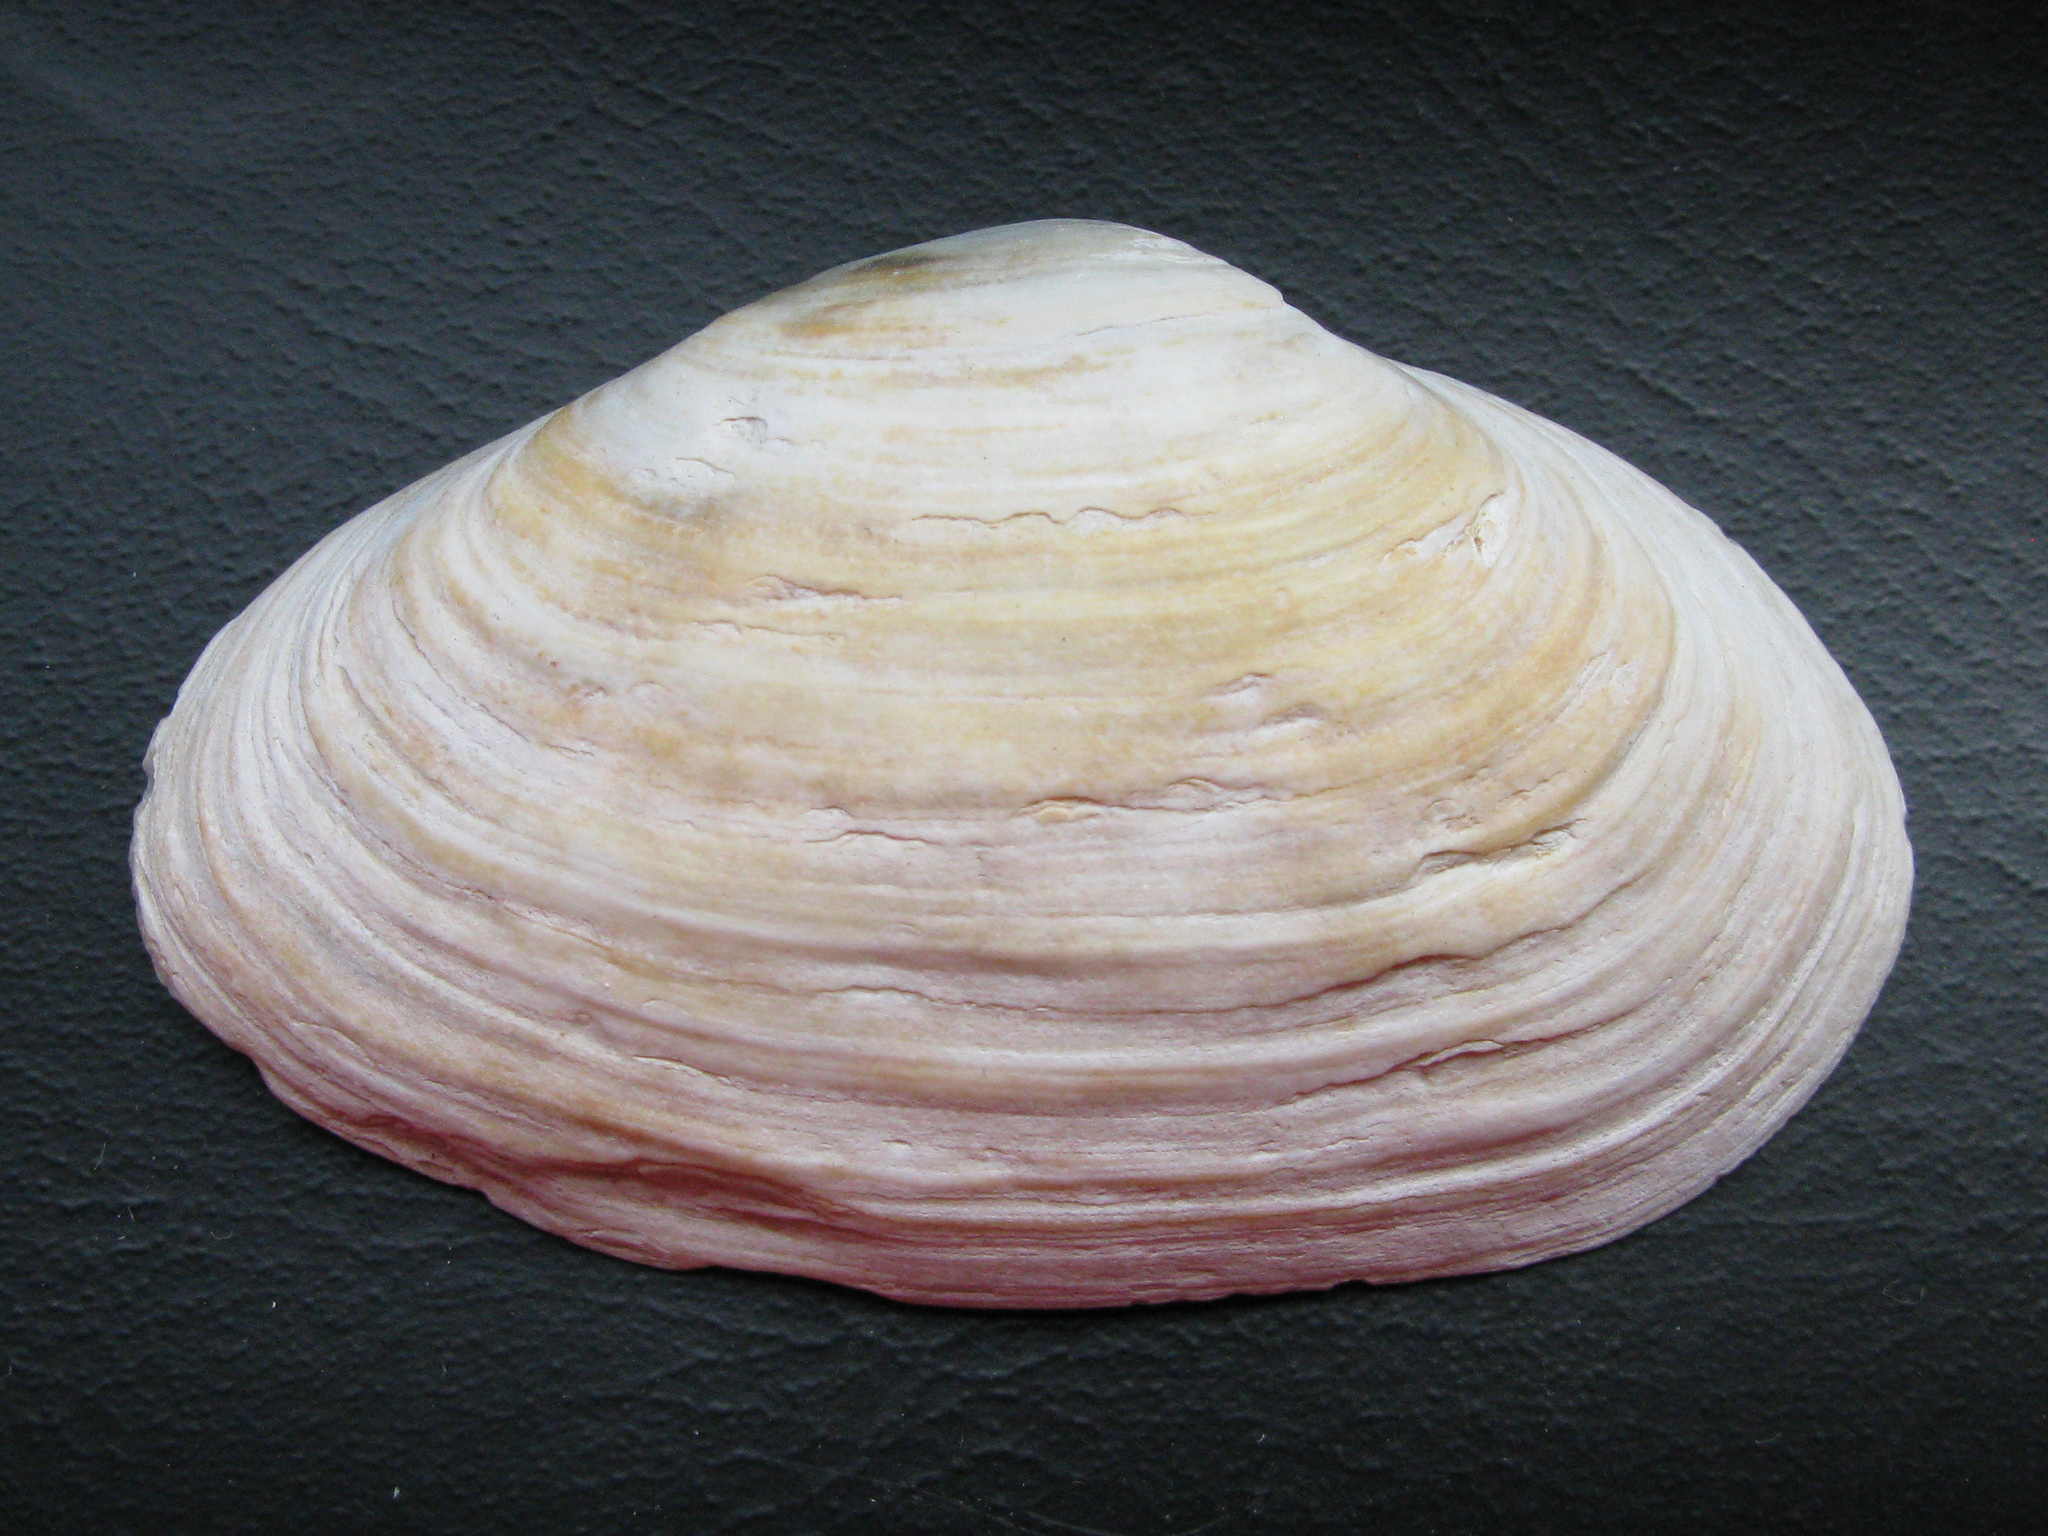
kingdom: Animalia
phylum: Mollusca
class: Bivalvia
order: Myida
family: Myidae
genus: Mya
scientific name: Mya arenaria
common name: Soft-shelled clam
